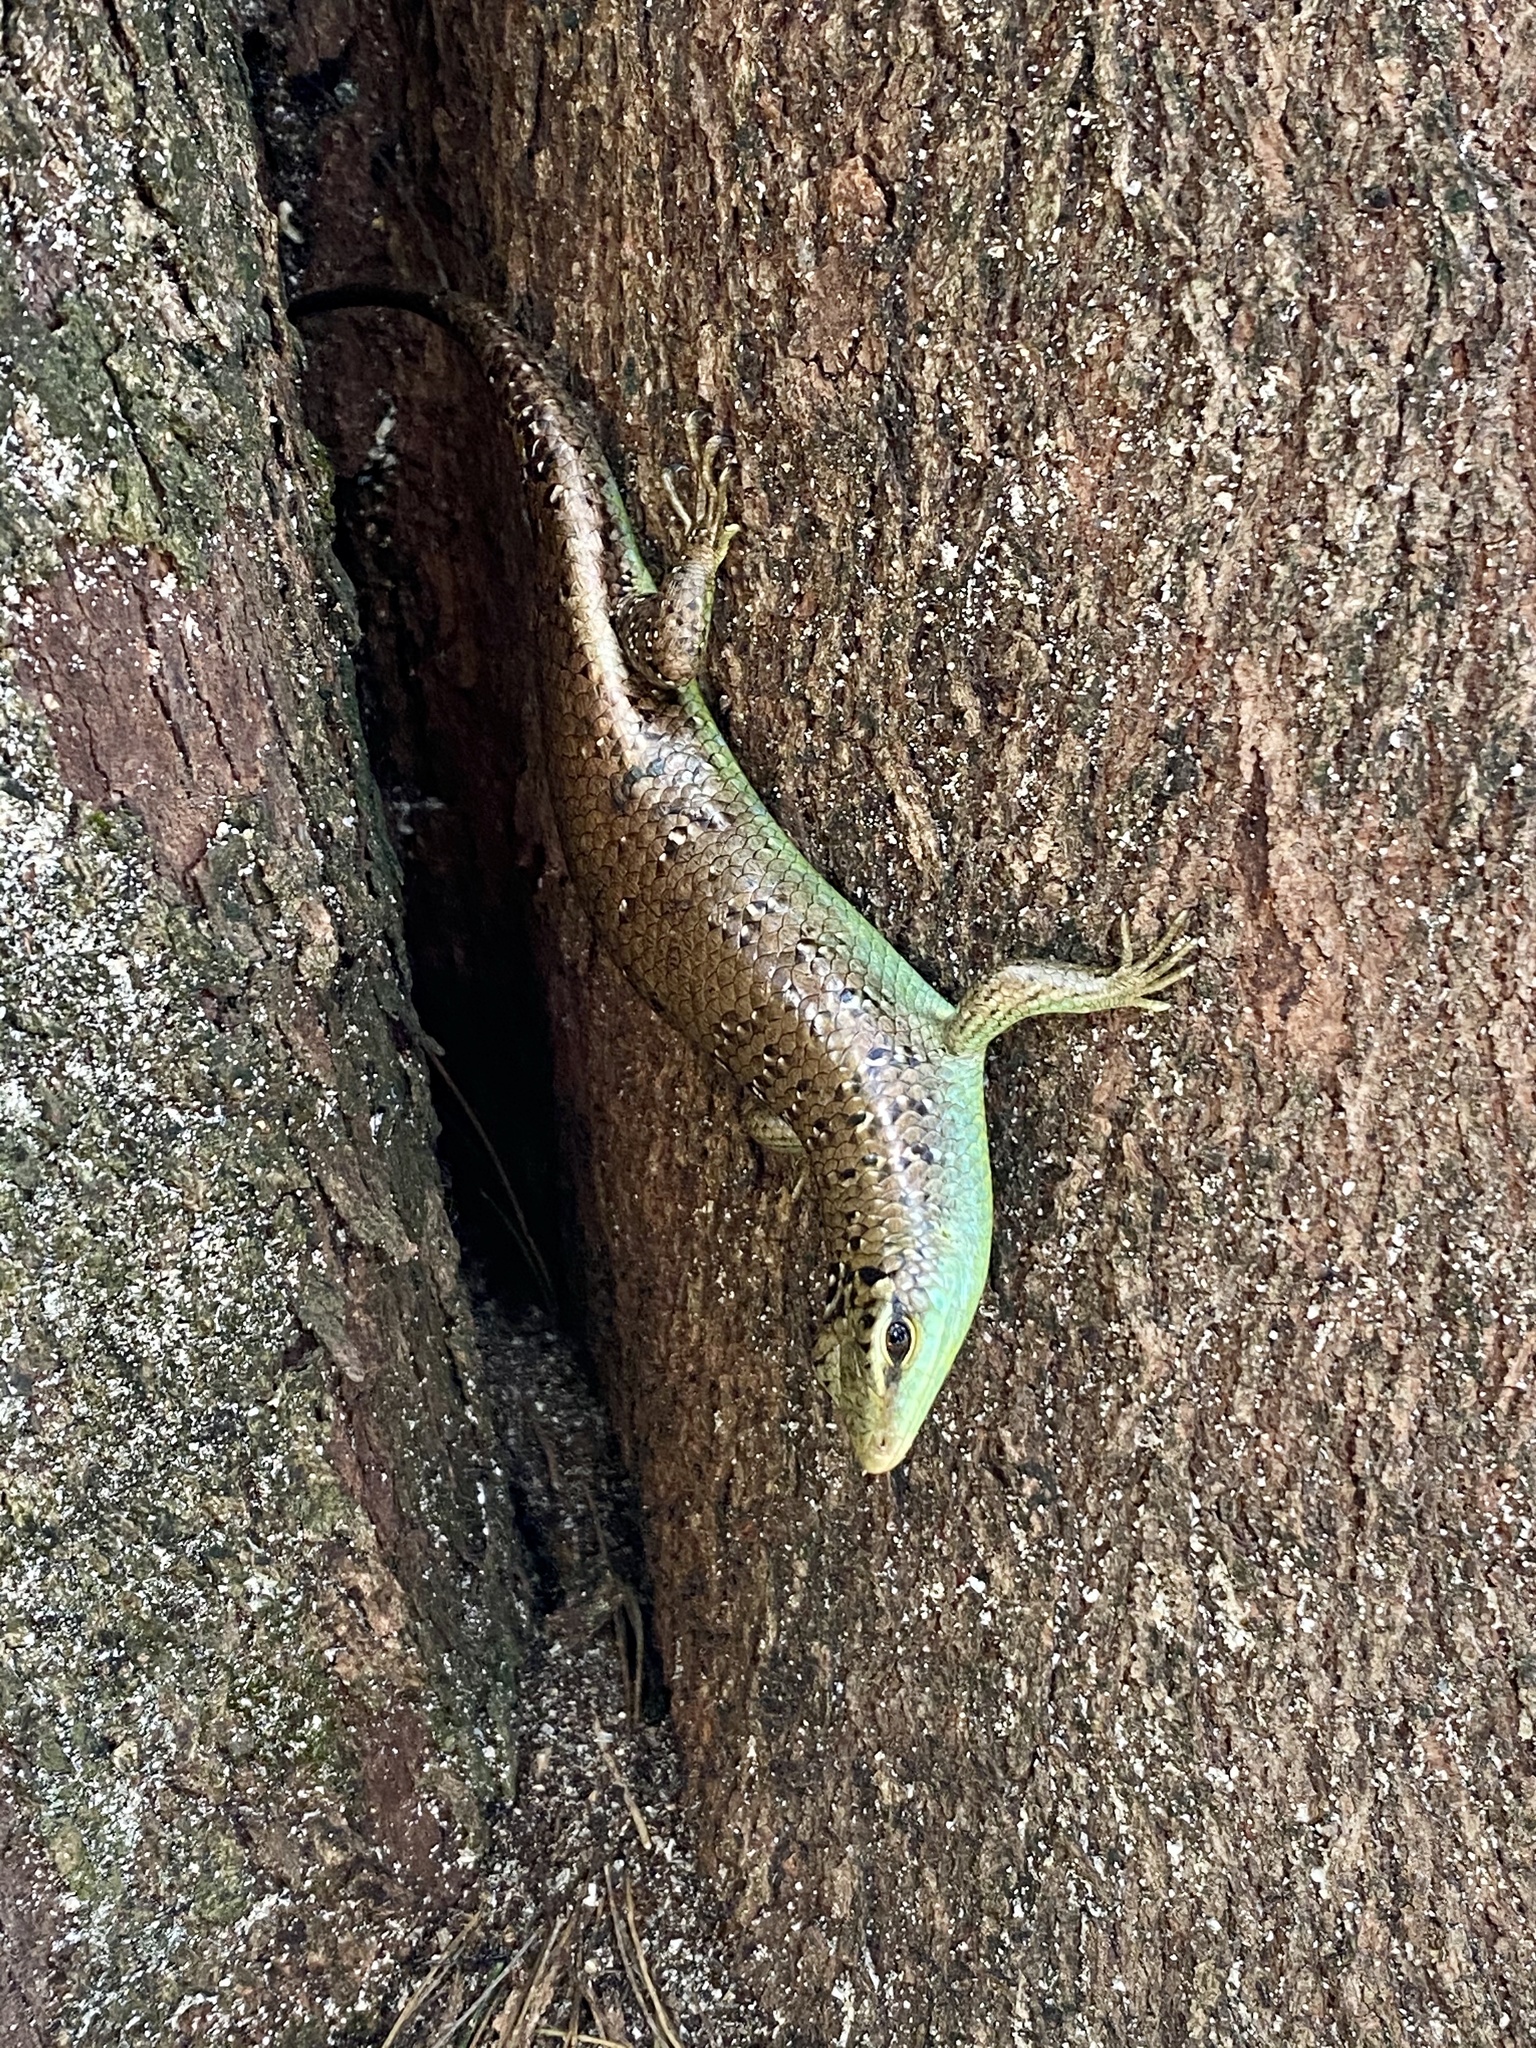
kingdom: Animalia
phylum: Chordata
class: Squamata
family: Scincidae
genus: Dasia
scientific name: Dasia olivacea
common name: Olive dasia
